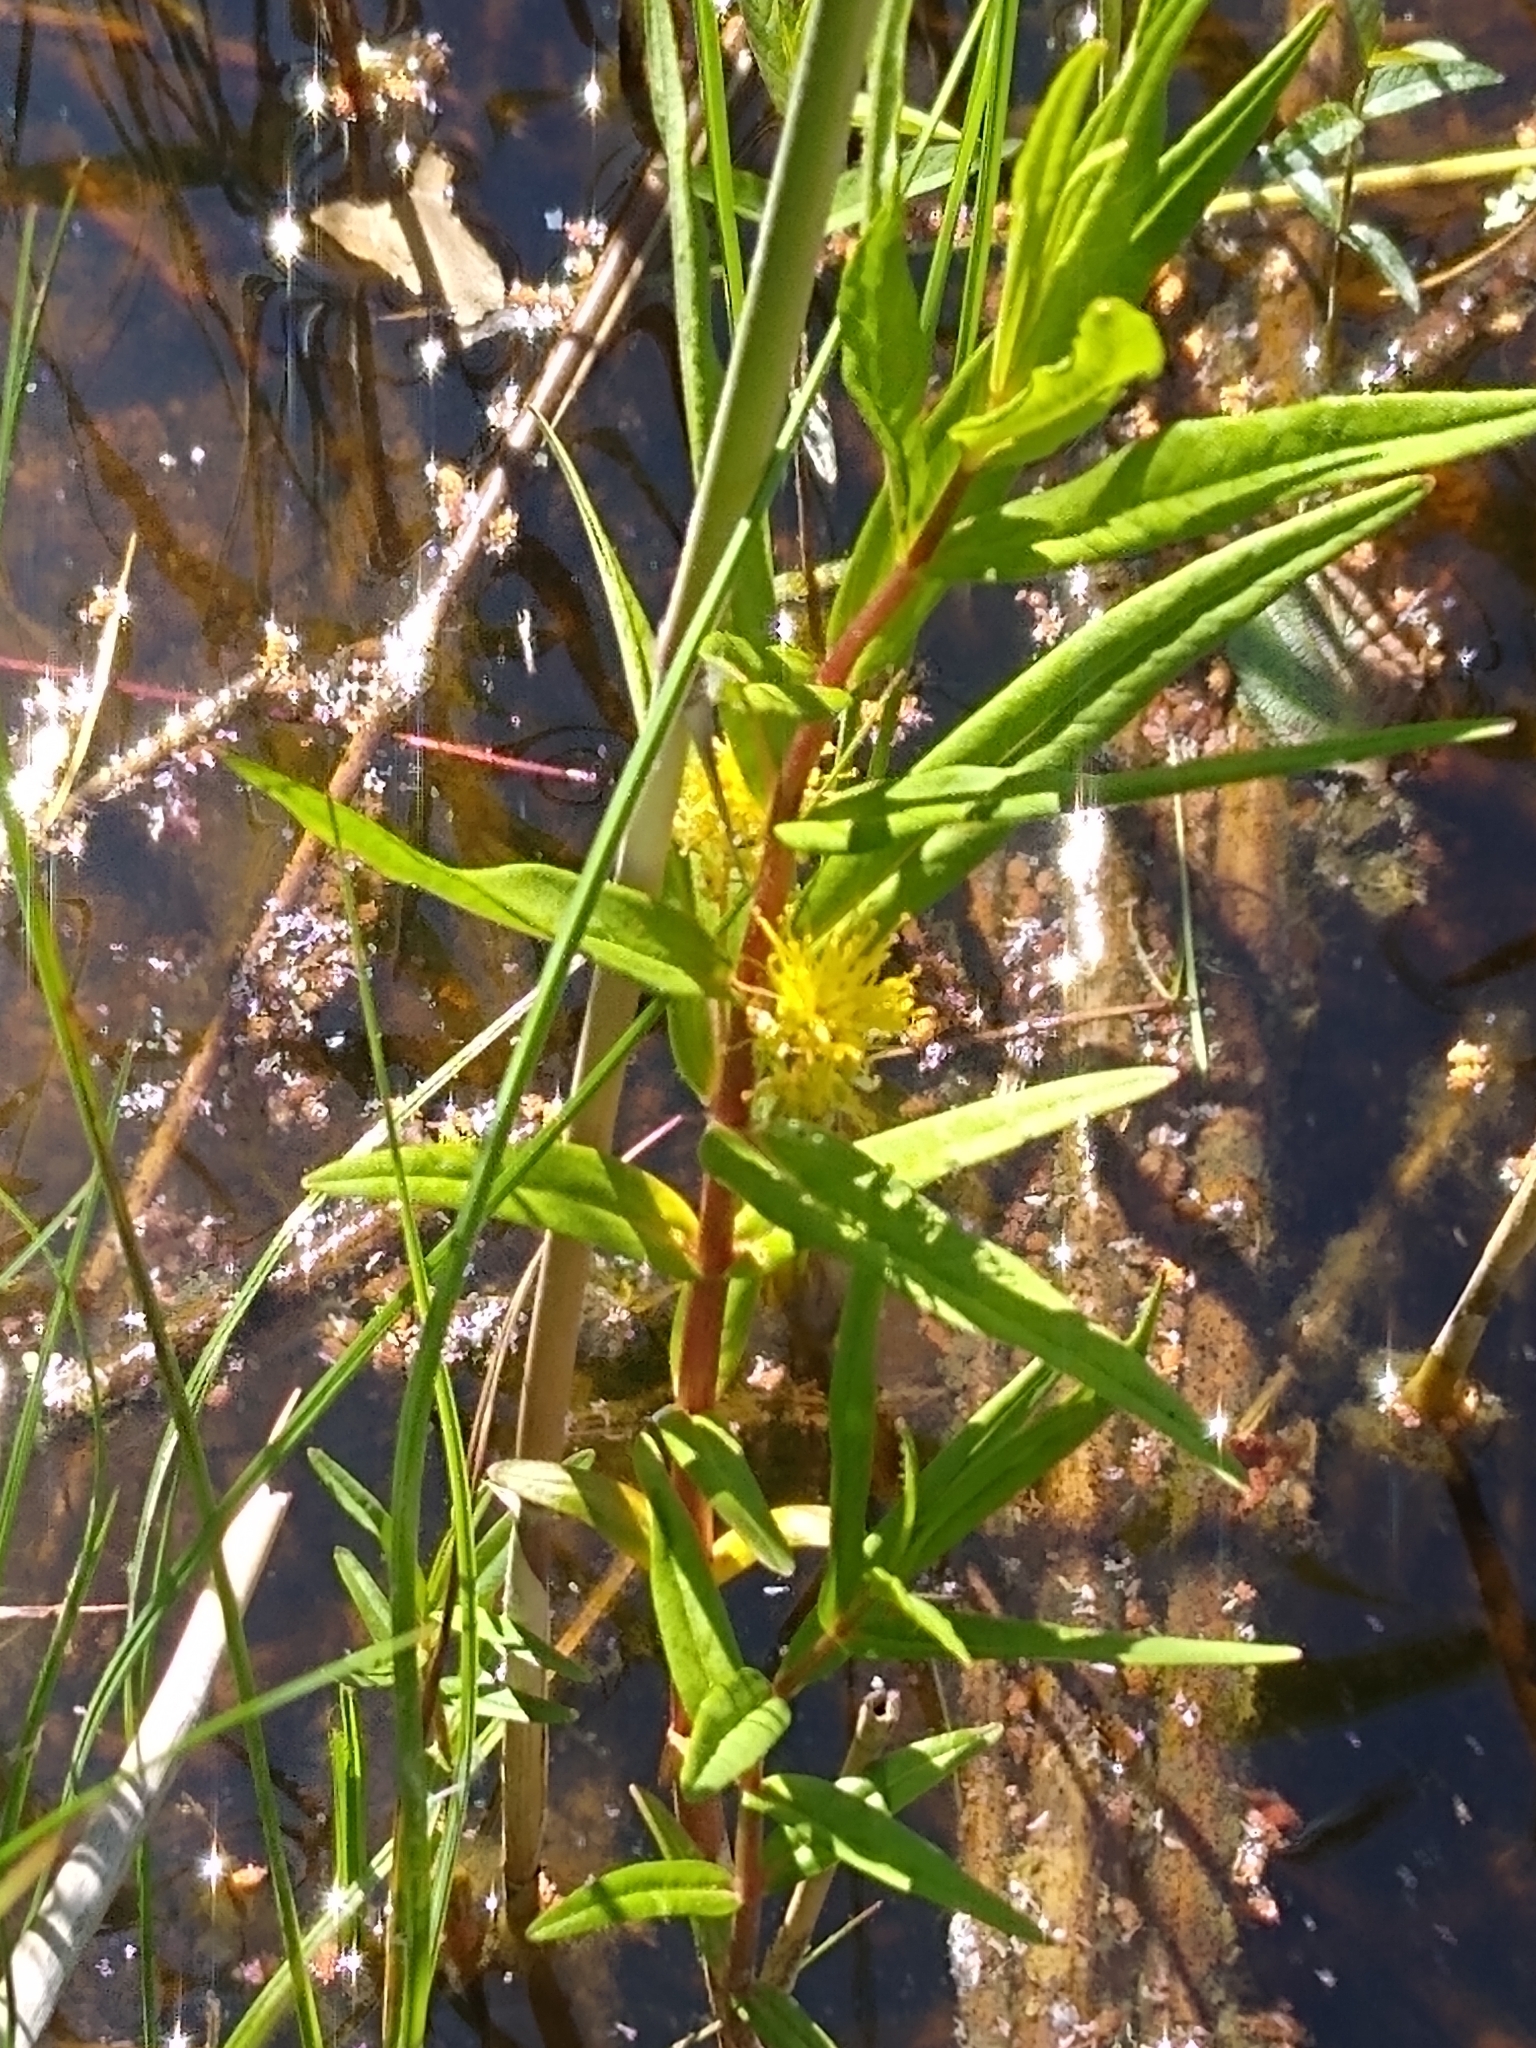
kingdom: Plantae
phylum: Tracheophyta
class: Magnoliopsida
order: Ericales
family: Primulaceae
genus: Lysimachia
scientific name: Lysimachia thyrsiflora
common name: Tufted loosestrife
